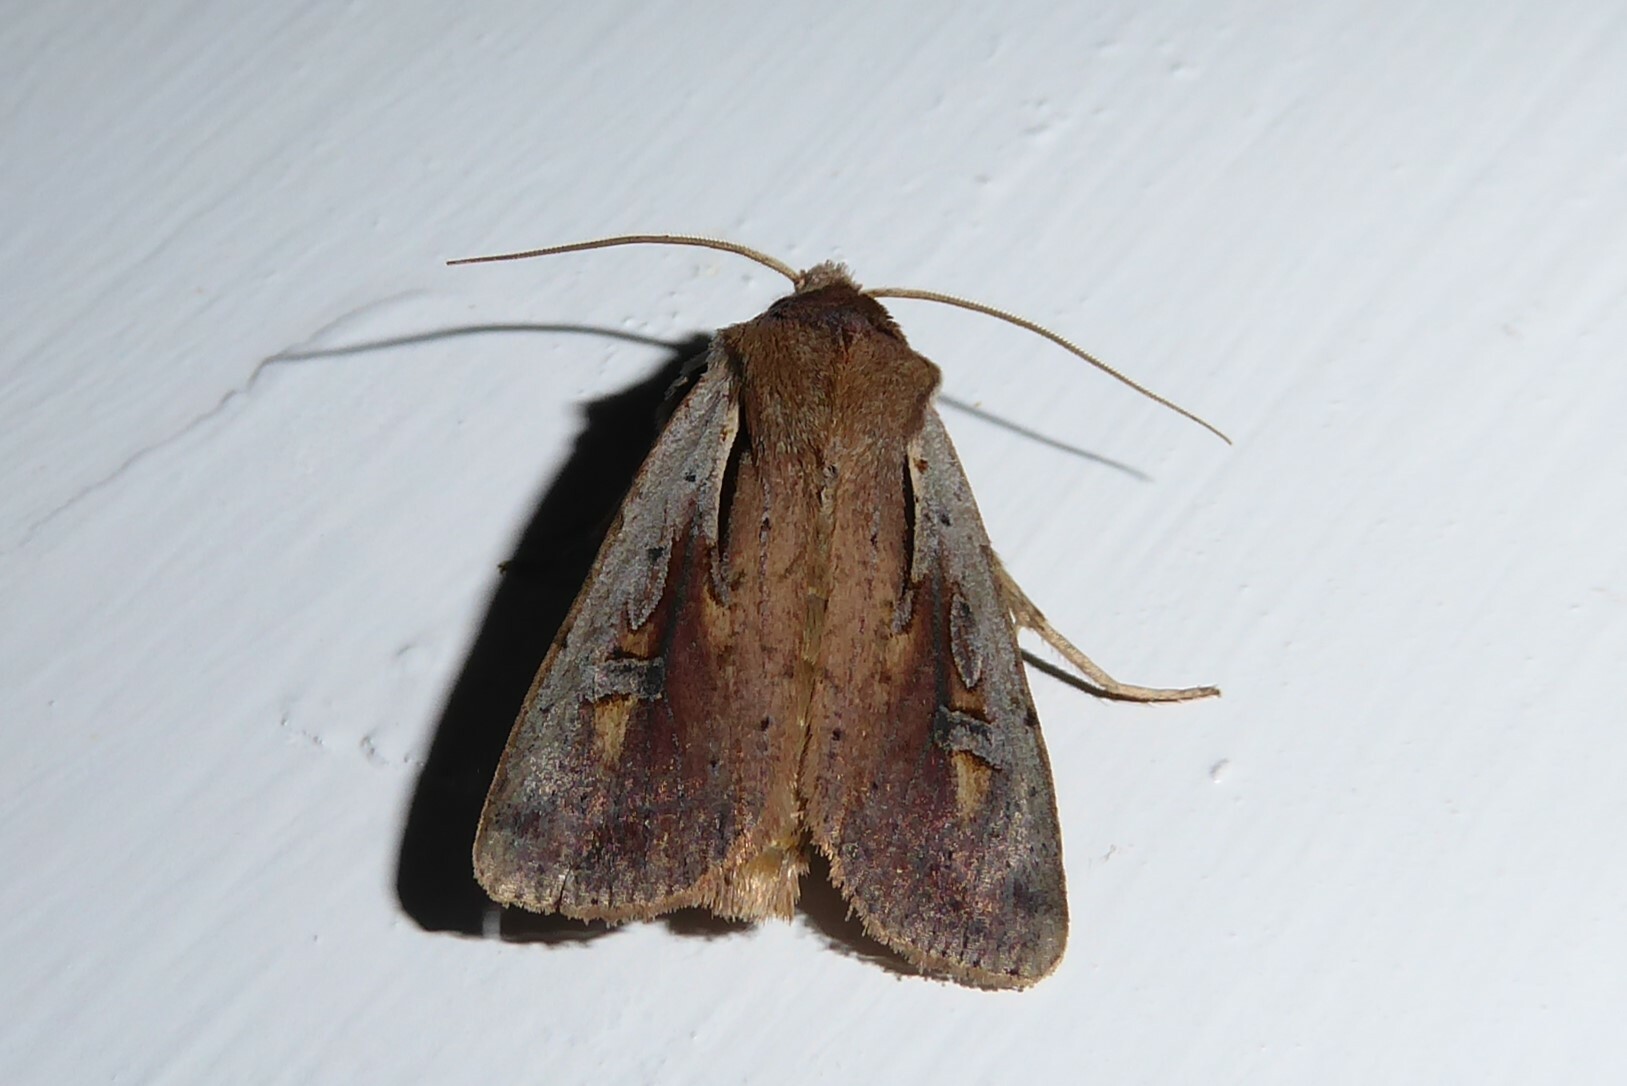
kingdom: Animalia
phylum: Arthropoda
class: Insecta
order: Lepidoptera
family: Noctuidae
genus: Ichneutica
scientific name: Ichneutica atristriga
